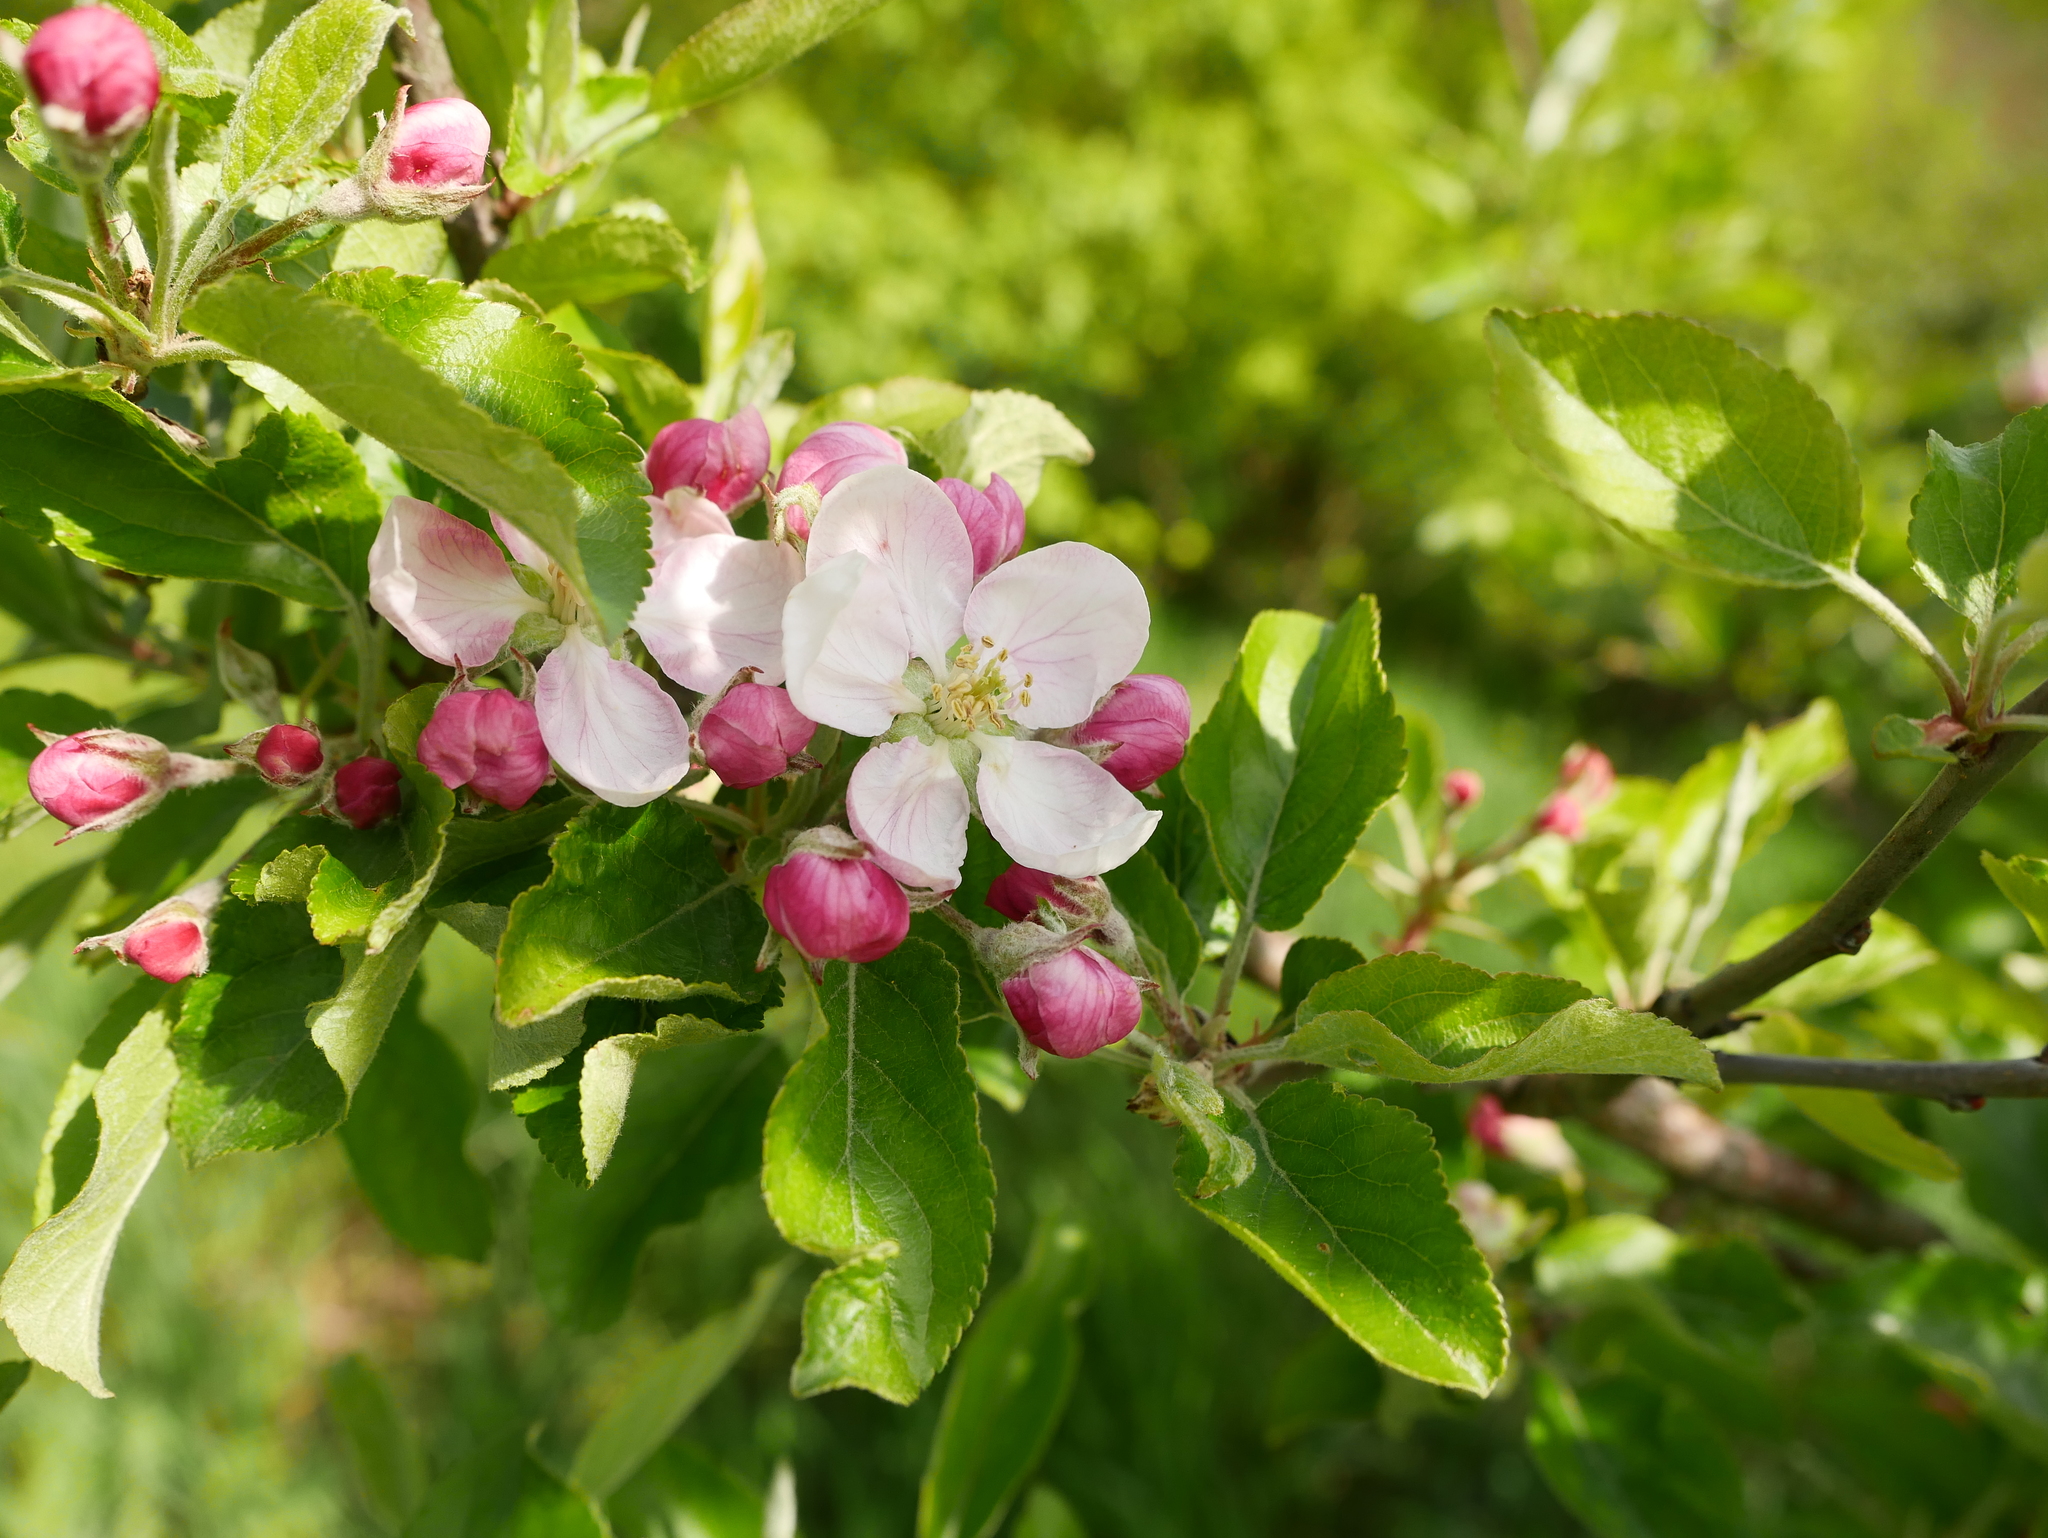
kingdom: Plantae
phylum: Tracheophyta
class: Magnoliopsida
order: Rosales
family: Rosaceae
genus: Malus
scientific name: Malus domestica
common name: Apple
